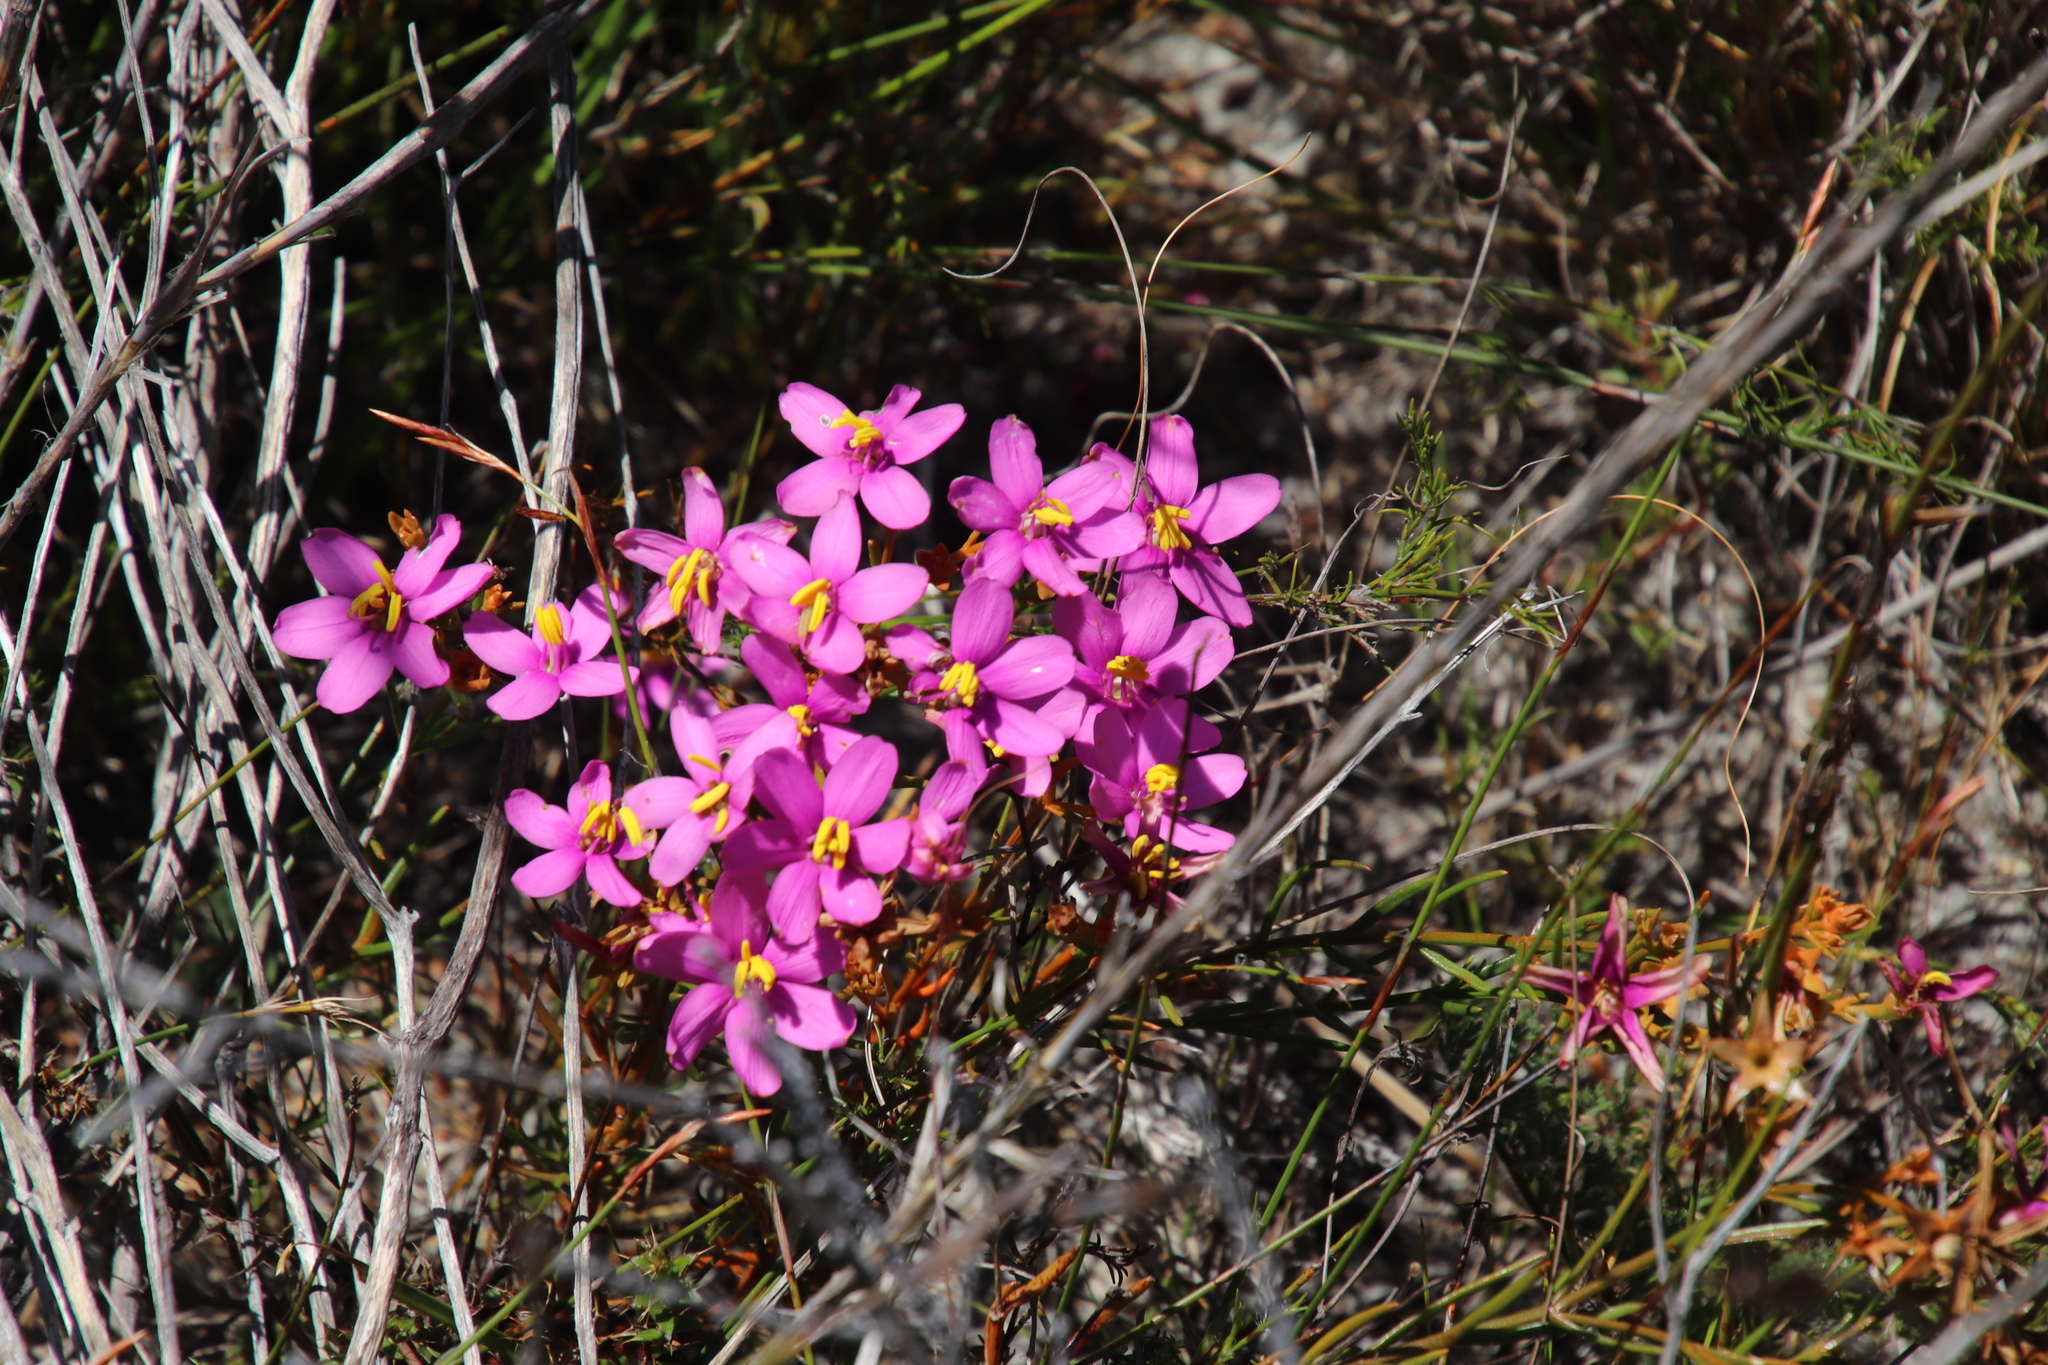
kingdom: Plantae
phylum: Tracheophyta
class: Magnoliopsida
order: Gentianales
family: Gentianaceae
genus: Chironia
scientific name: Chironia linoides
